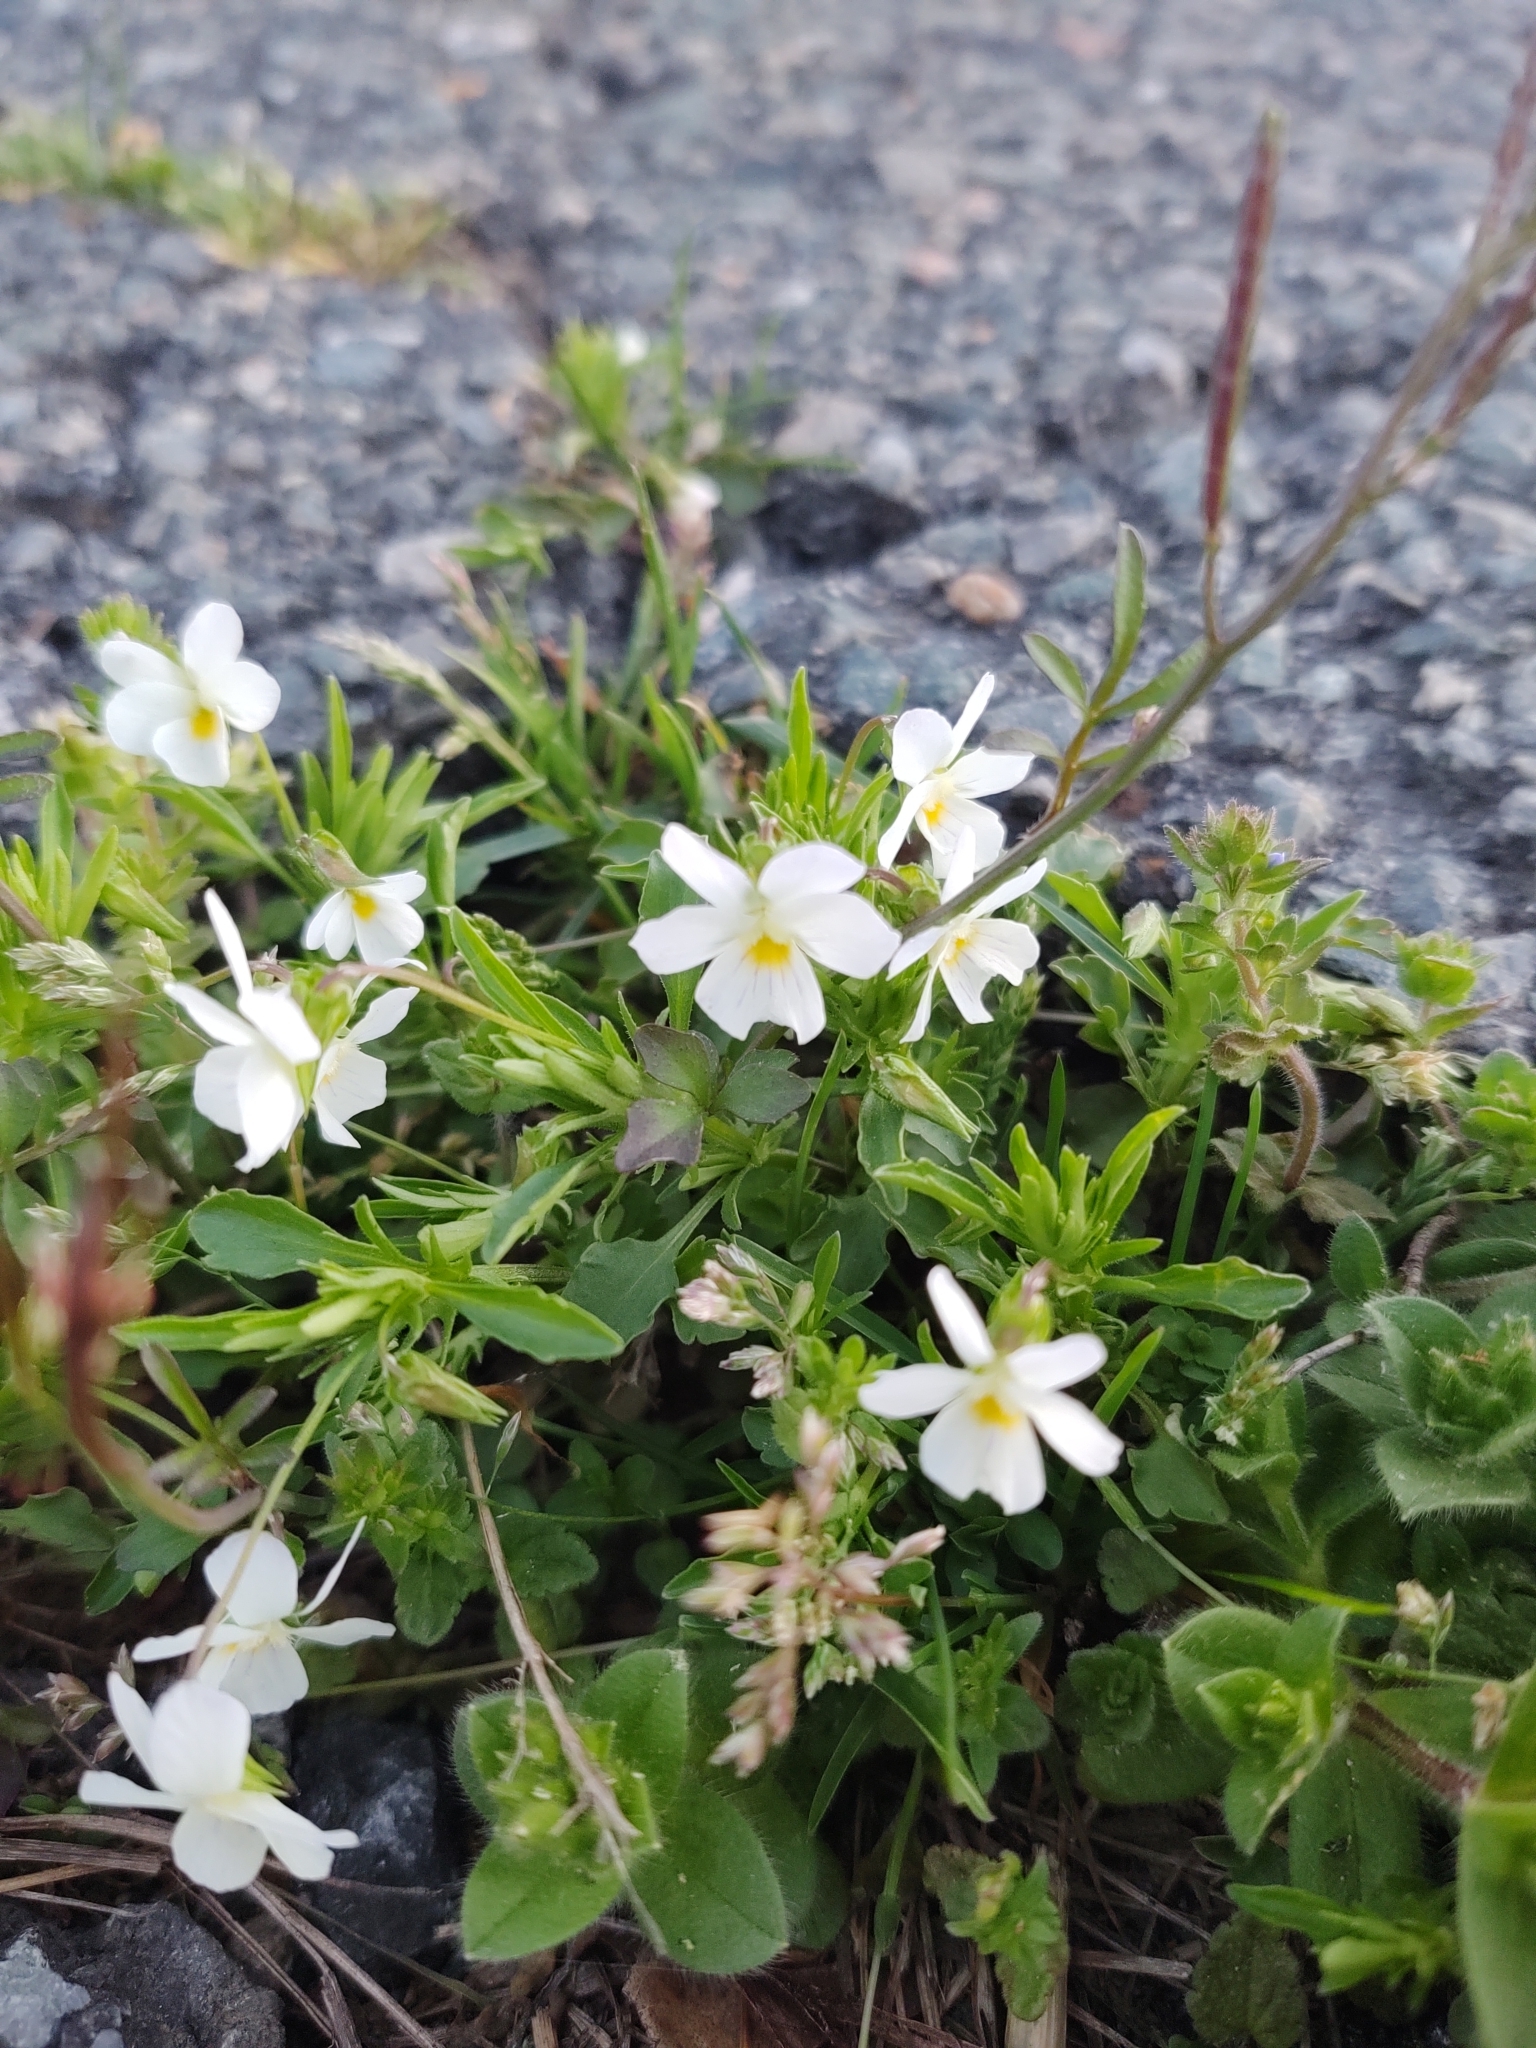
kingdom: Plantae
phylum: Tracheophyta
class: Magnoliopsida
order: Malpighiales
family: Violaceae
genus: Viola
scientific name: Viola rafinesquei
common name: American field pansy
